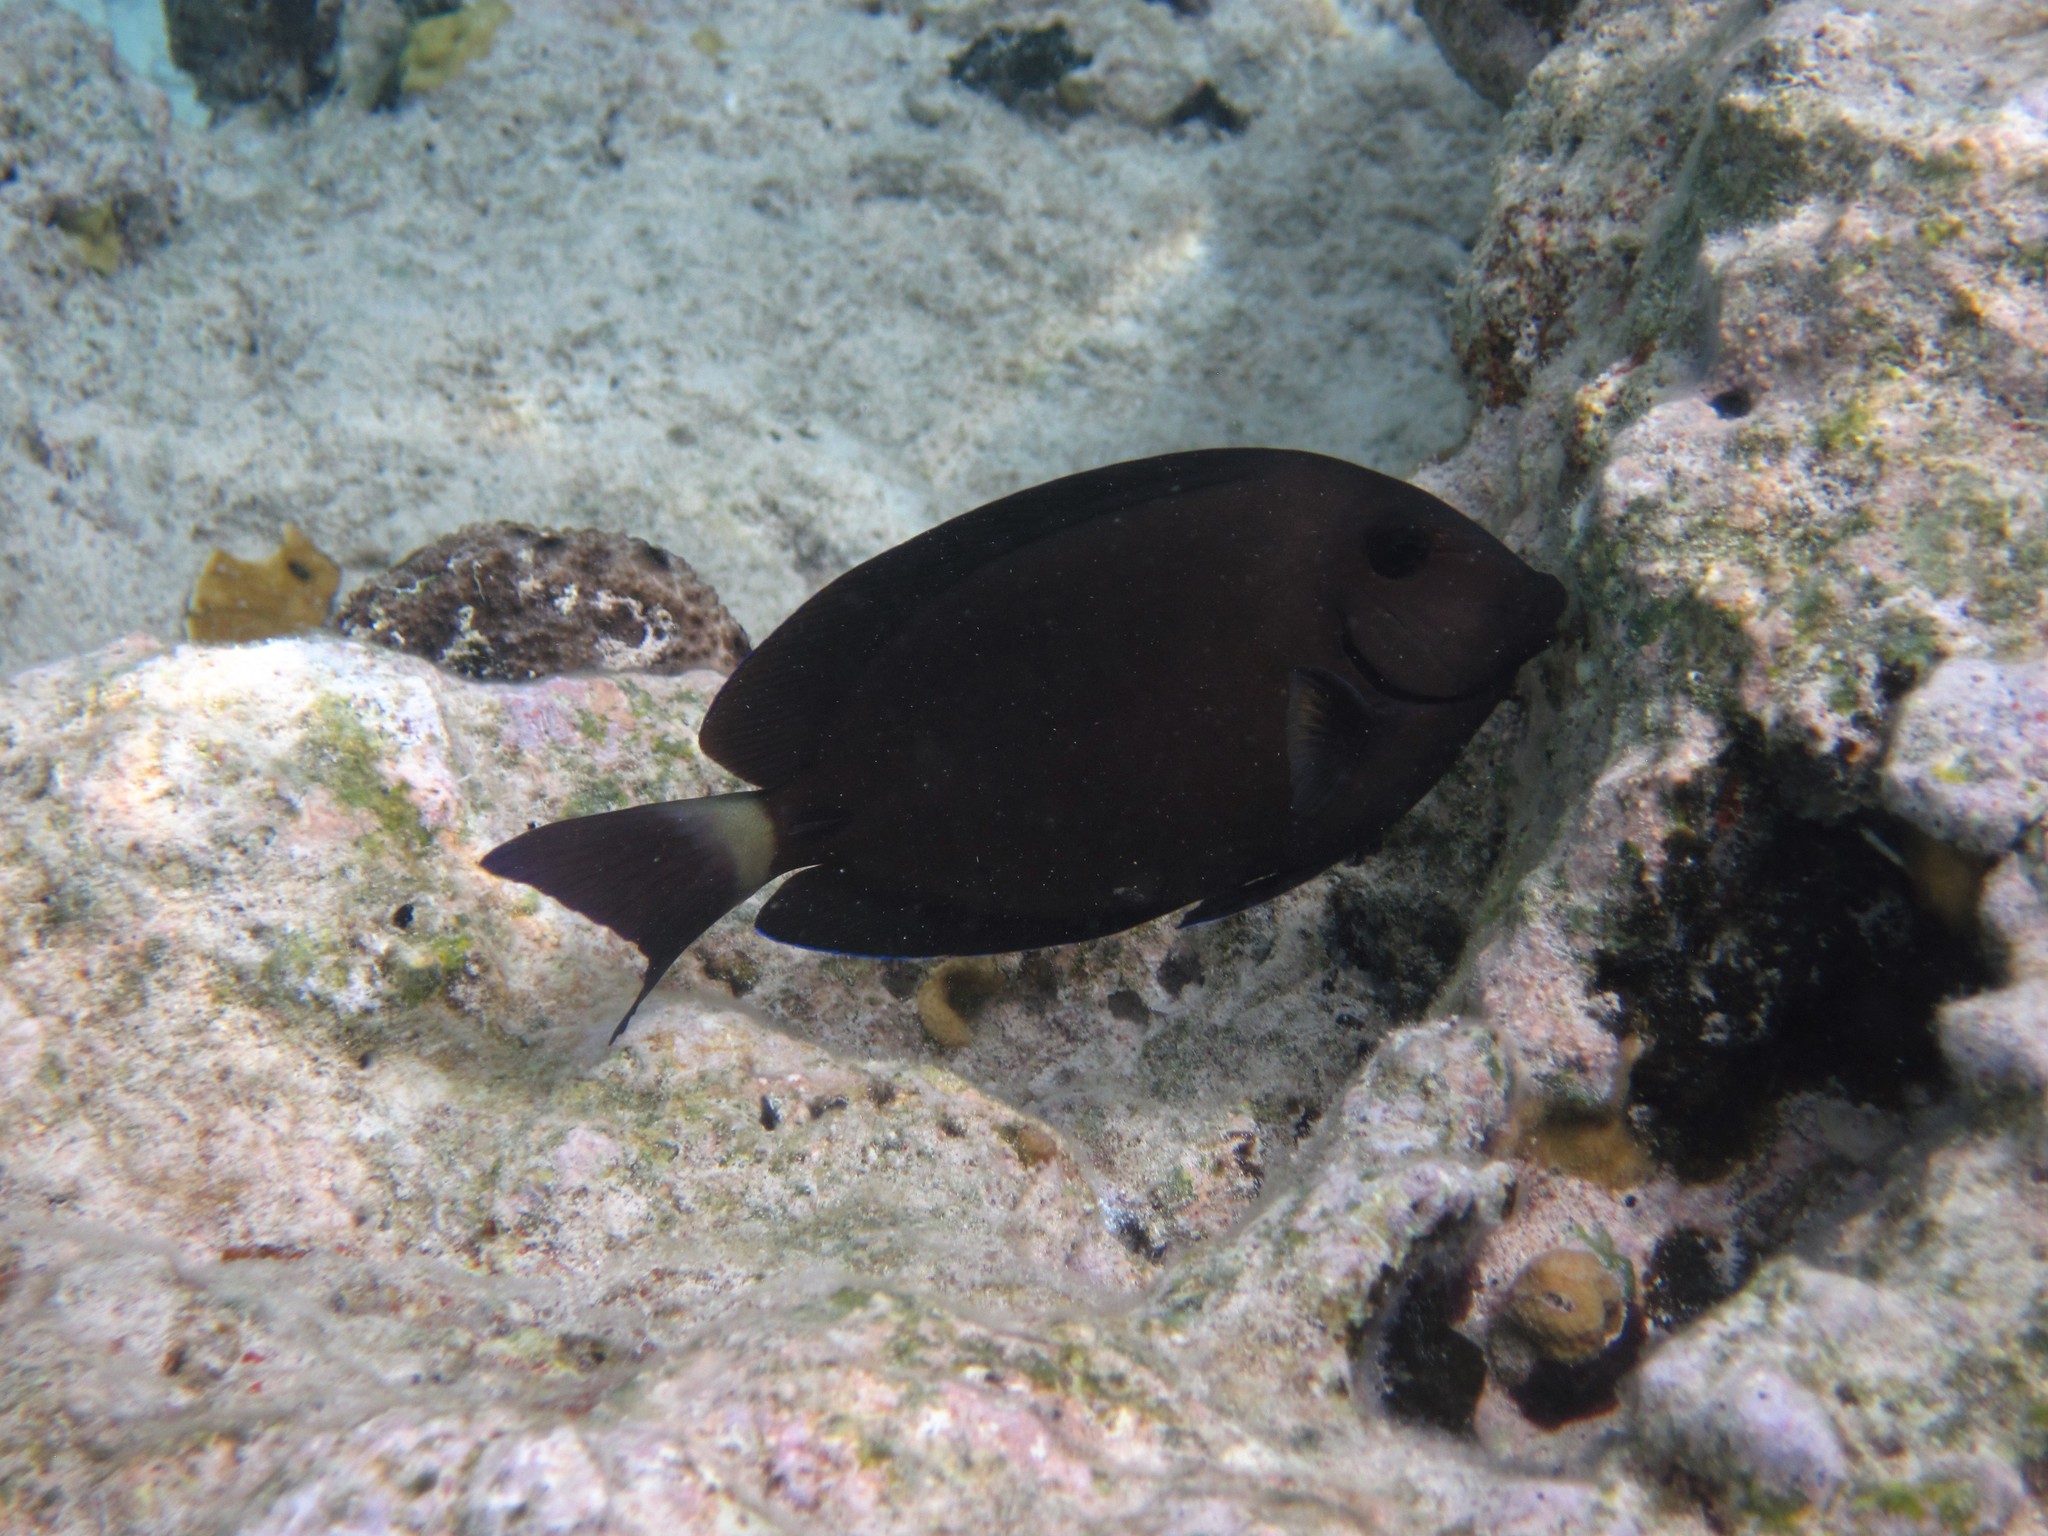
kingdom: Animalia
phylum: Chordata
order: Perciformes
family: Acanthuridae
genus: Acanthurus
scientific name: Acanthurus chirurgus
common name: Doctorfish
